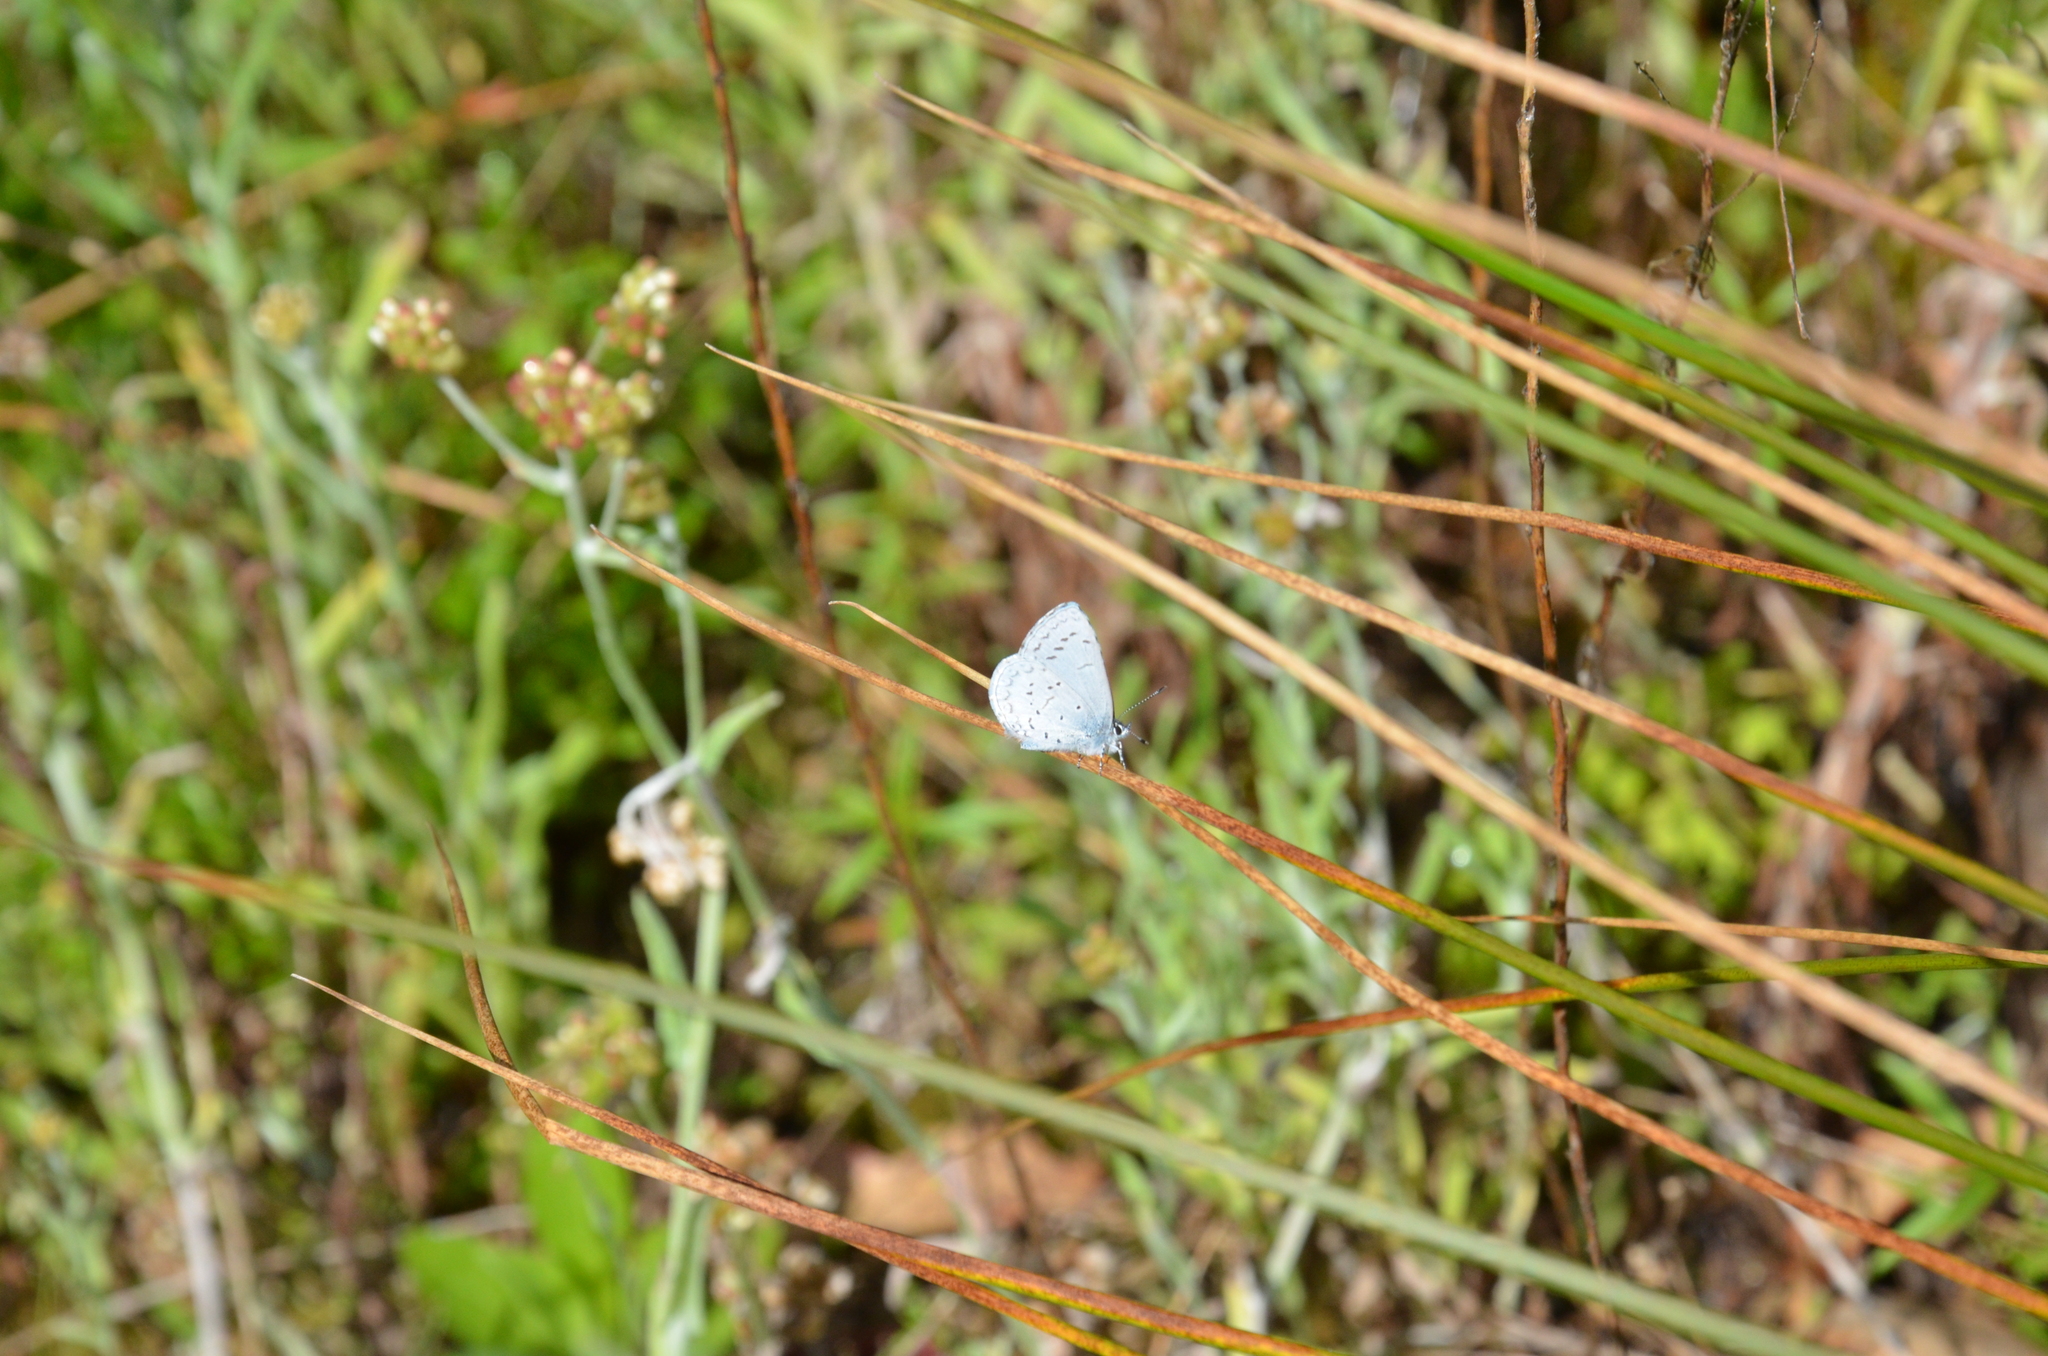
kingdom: Animalia
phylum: Arthropoda
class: Insecta
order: Lepidoptera
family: Lycaenidae
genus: Celastrina
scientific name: Celastrina ladon
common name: Spring azure
